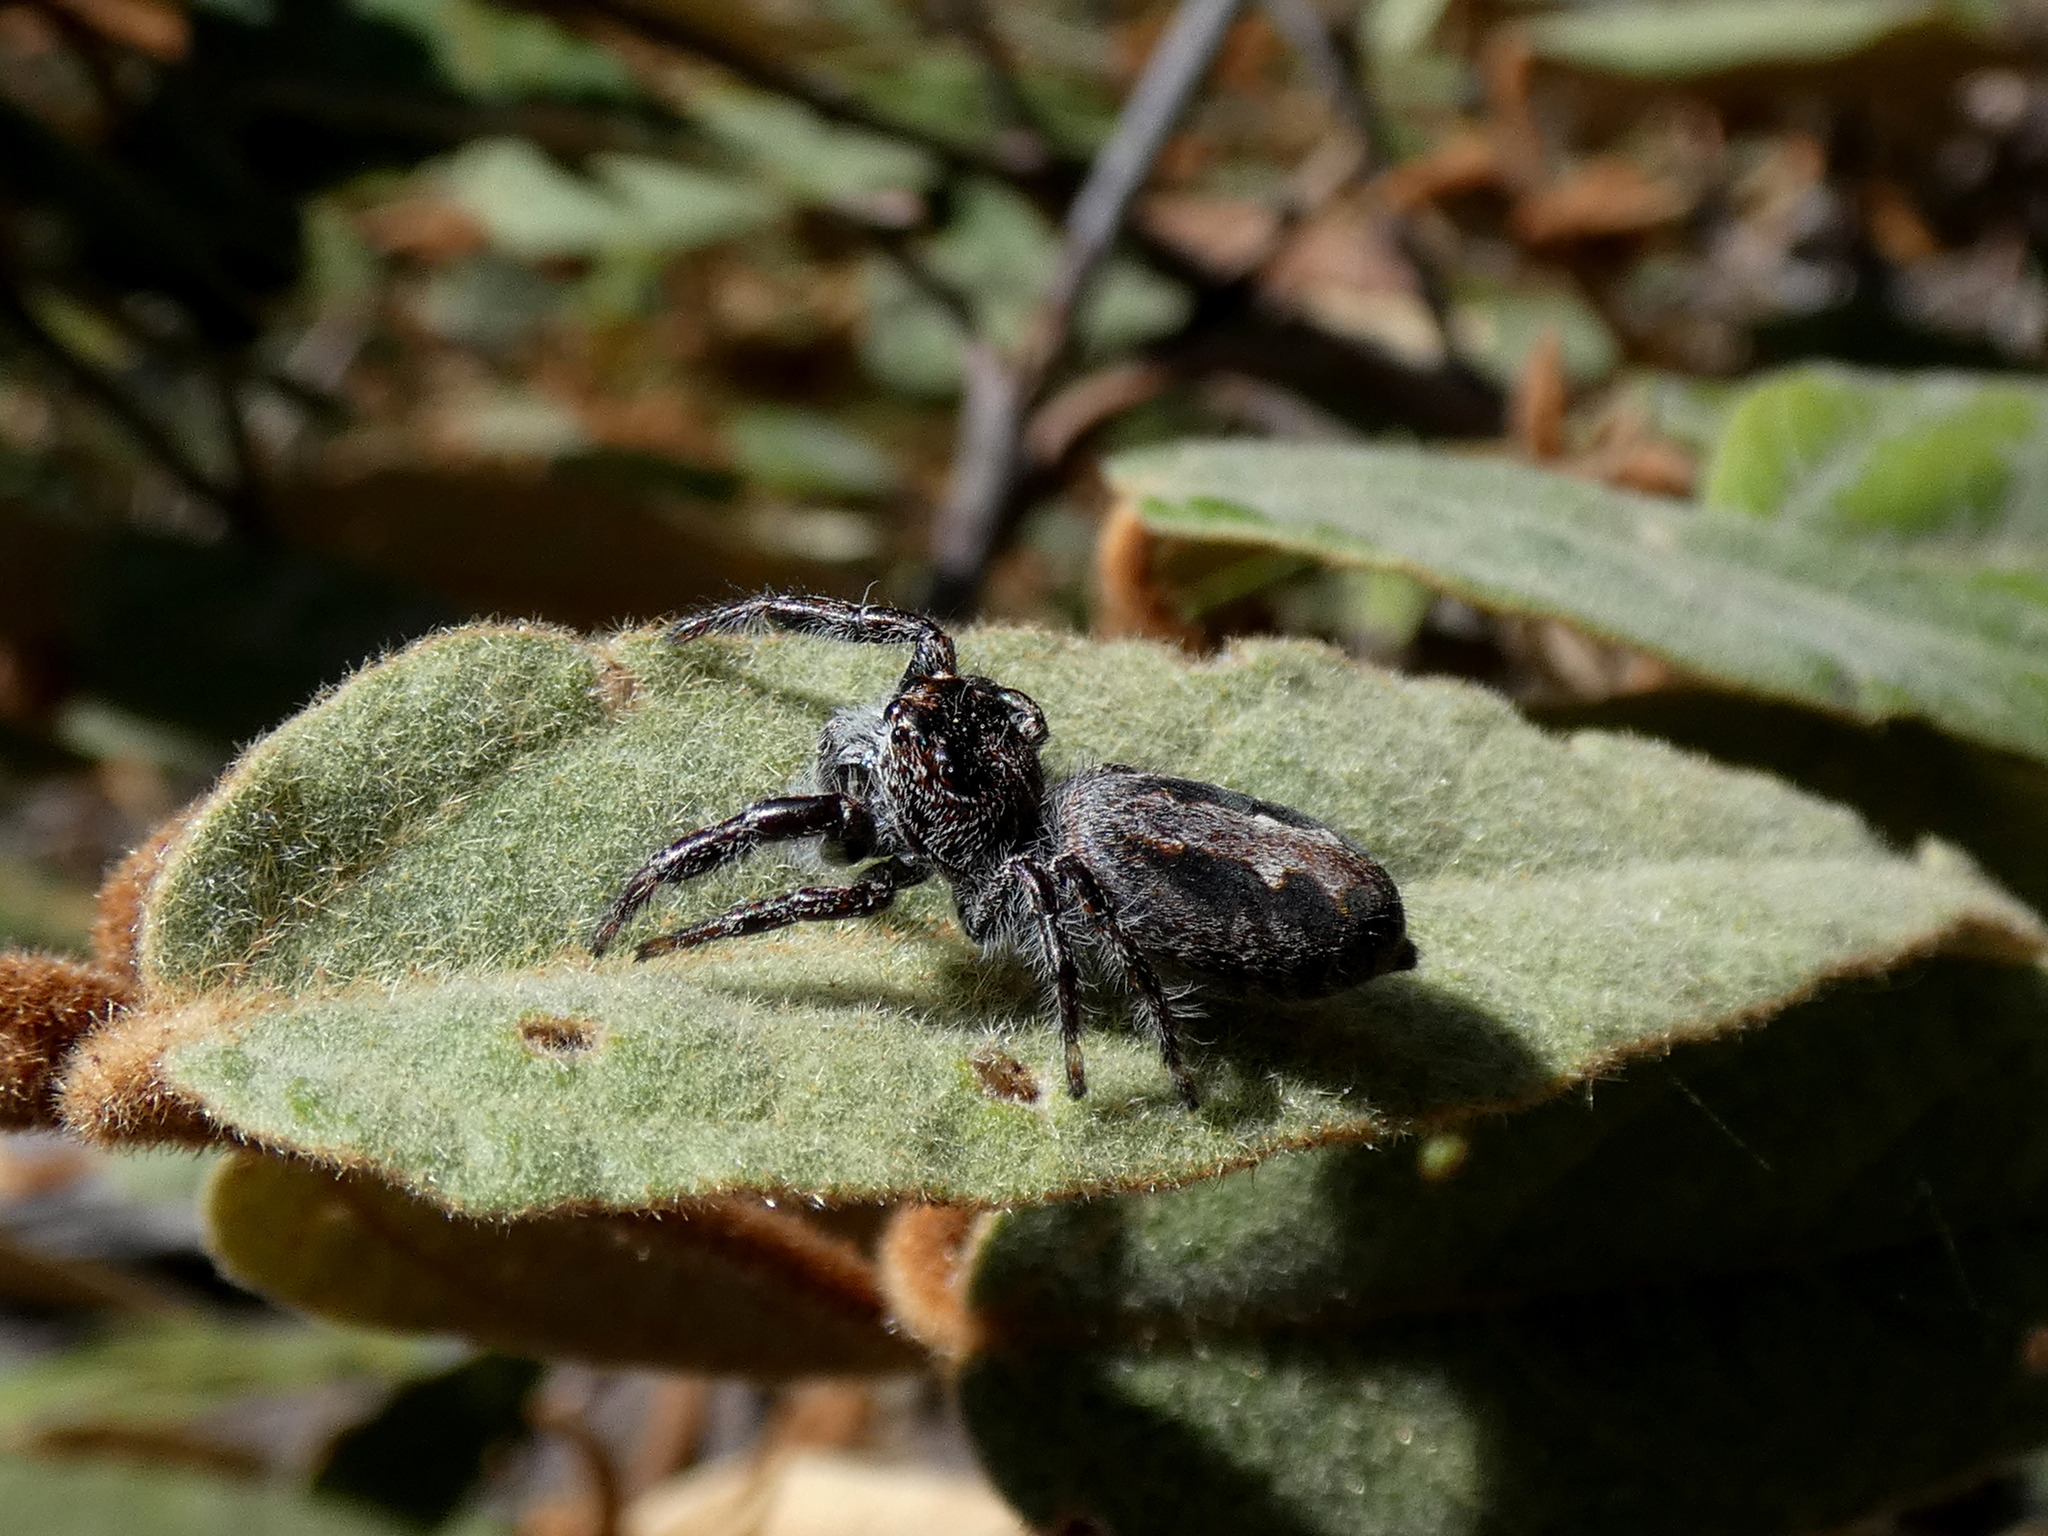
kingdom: Animalia
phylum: Arthropoda
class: Arachnida
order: Araneae
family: Salticidae
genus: Sandalodes
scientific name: Sandalodes superbus
